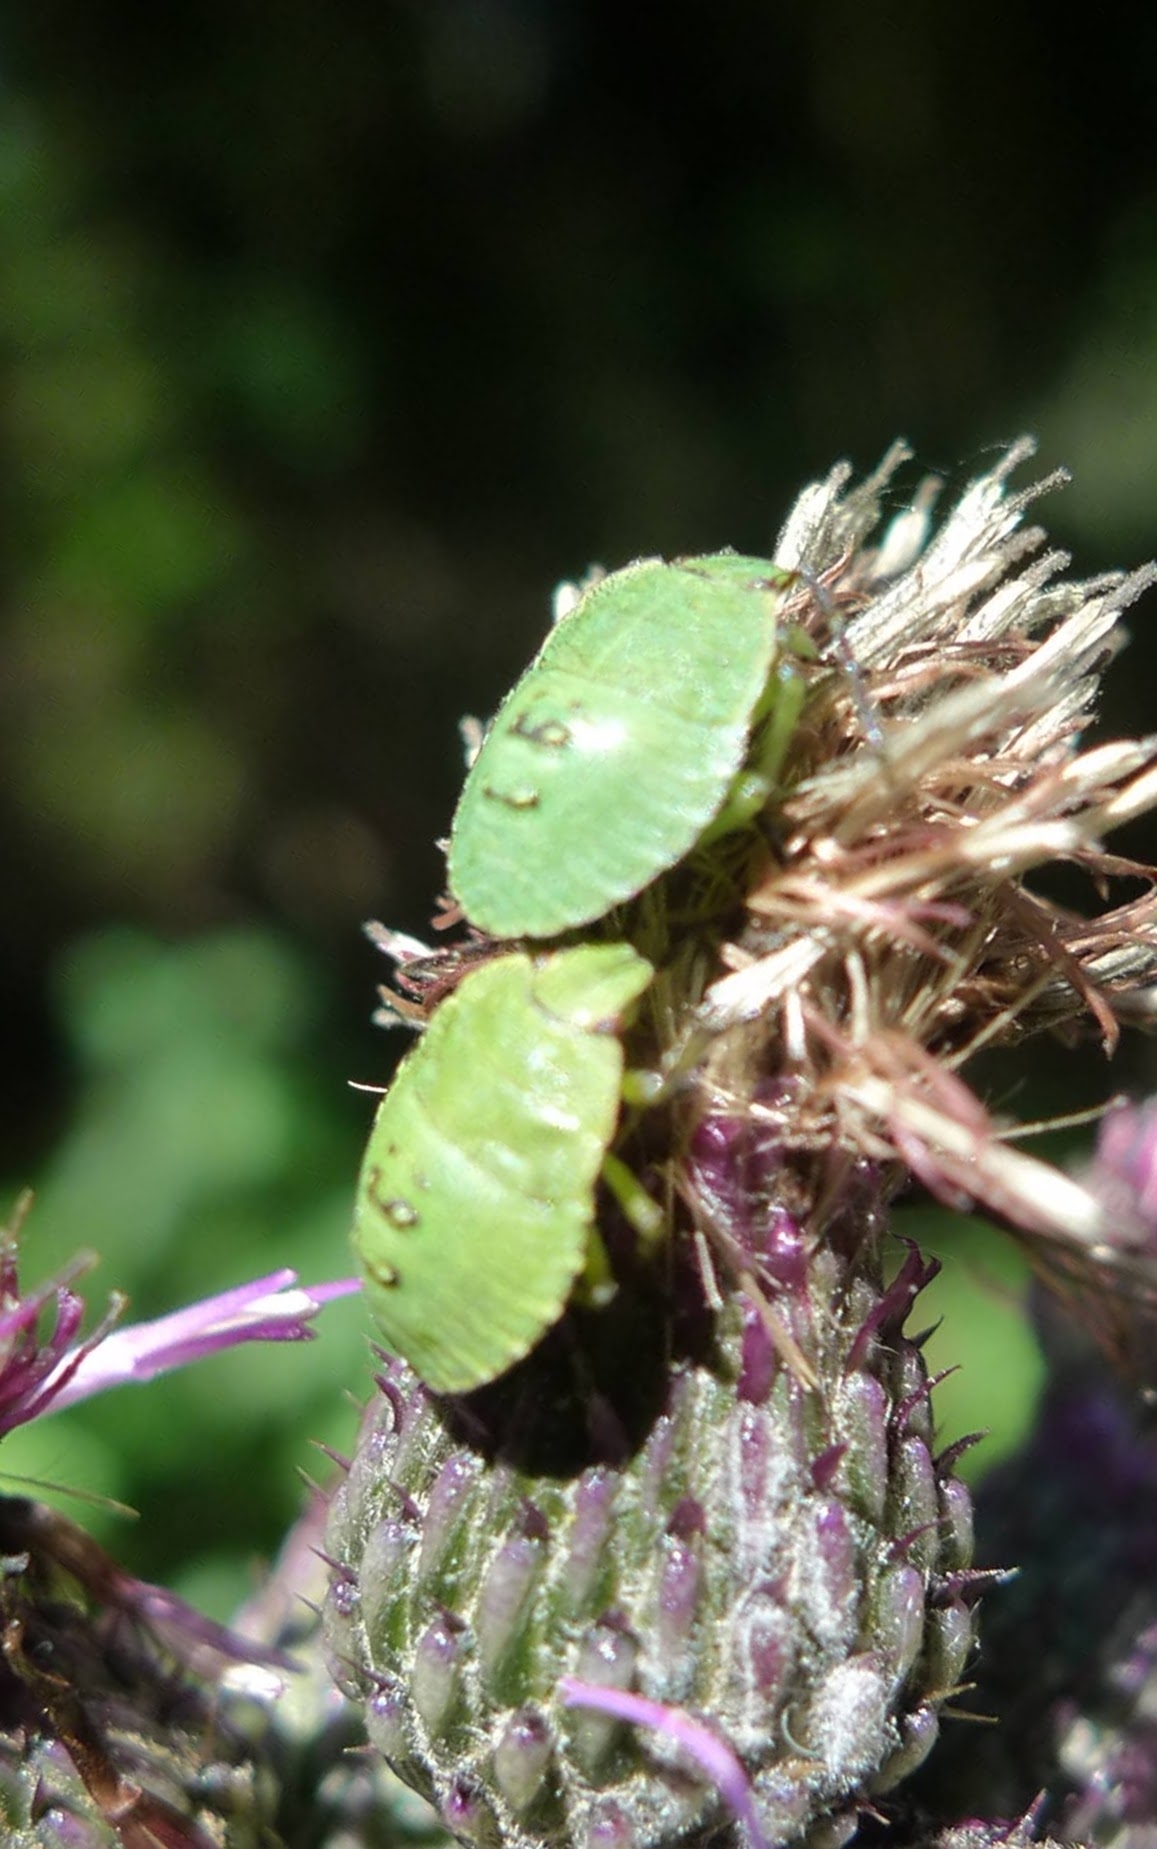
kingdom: Animalia
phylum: Arthropoda
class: Insecta
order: Hemiptera
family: Pentatomidae
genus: Palomena
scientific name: Palomena prasina
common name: Green shieldbug
